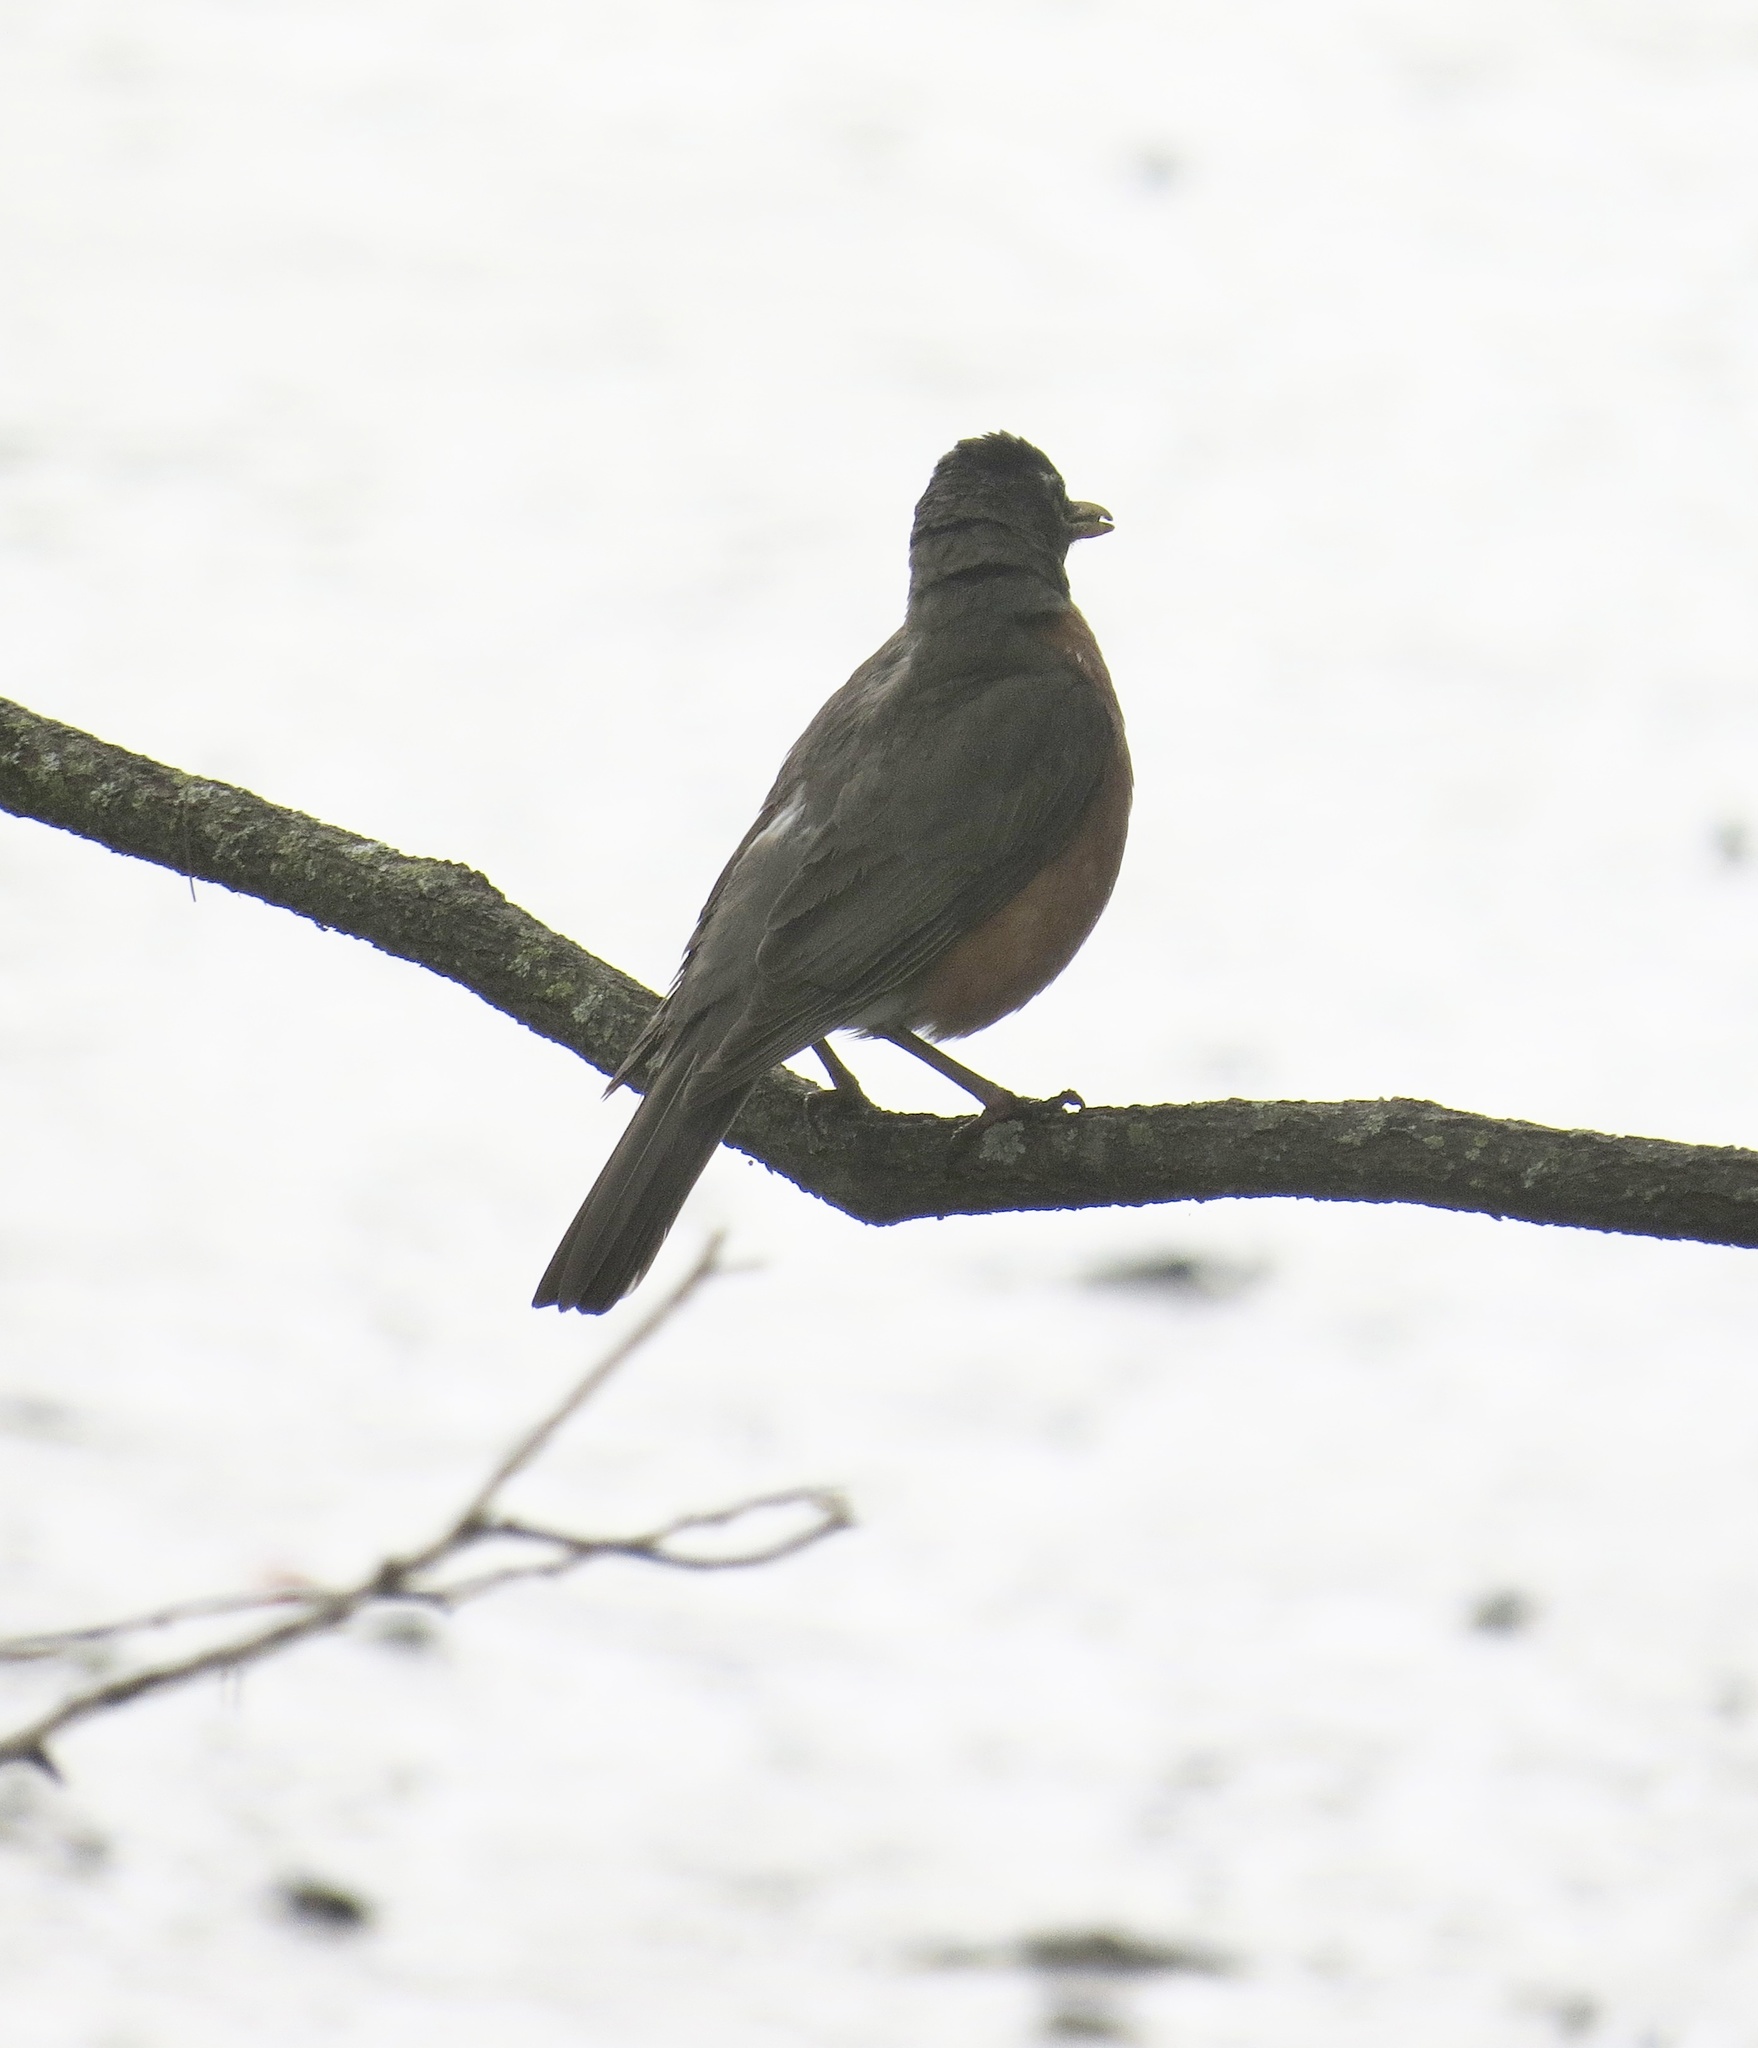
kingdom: Animalia
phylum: Chordata
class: Aves
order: Passeriformes
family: Turdidae
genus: Turdus
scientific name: Turdus migratorius
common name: American robin
